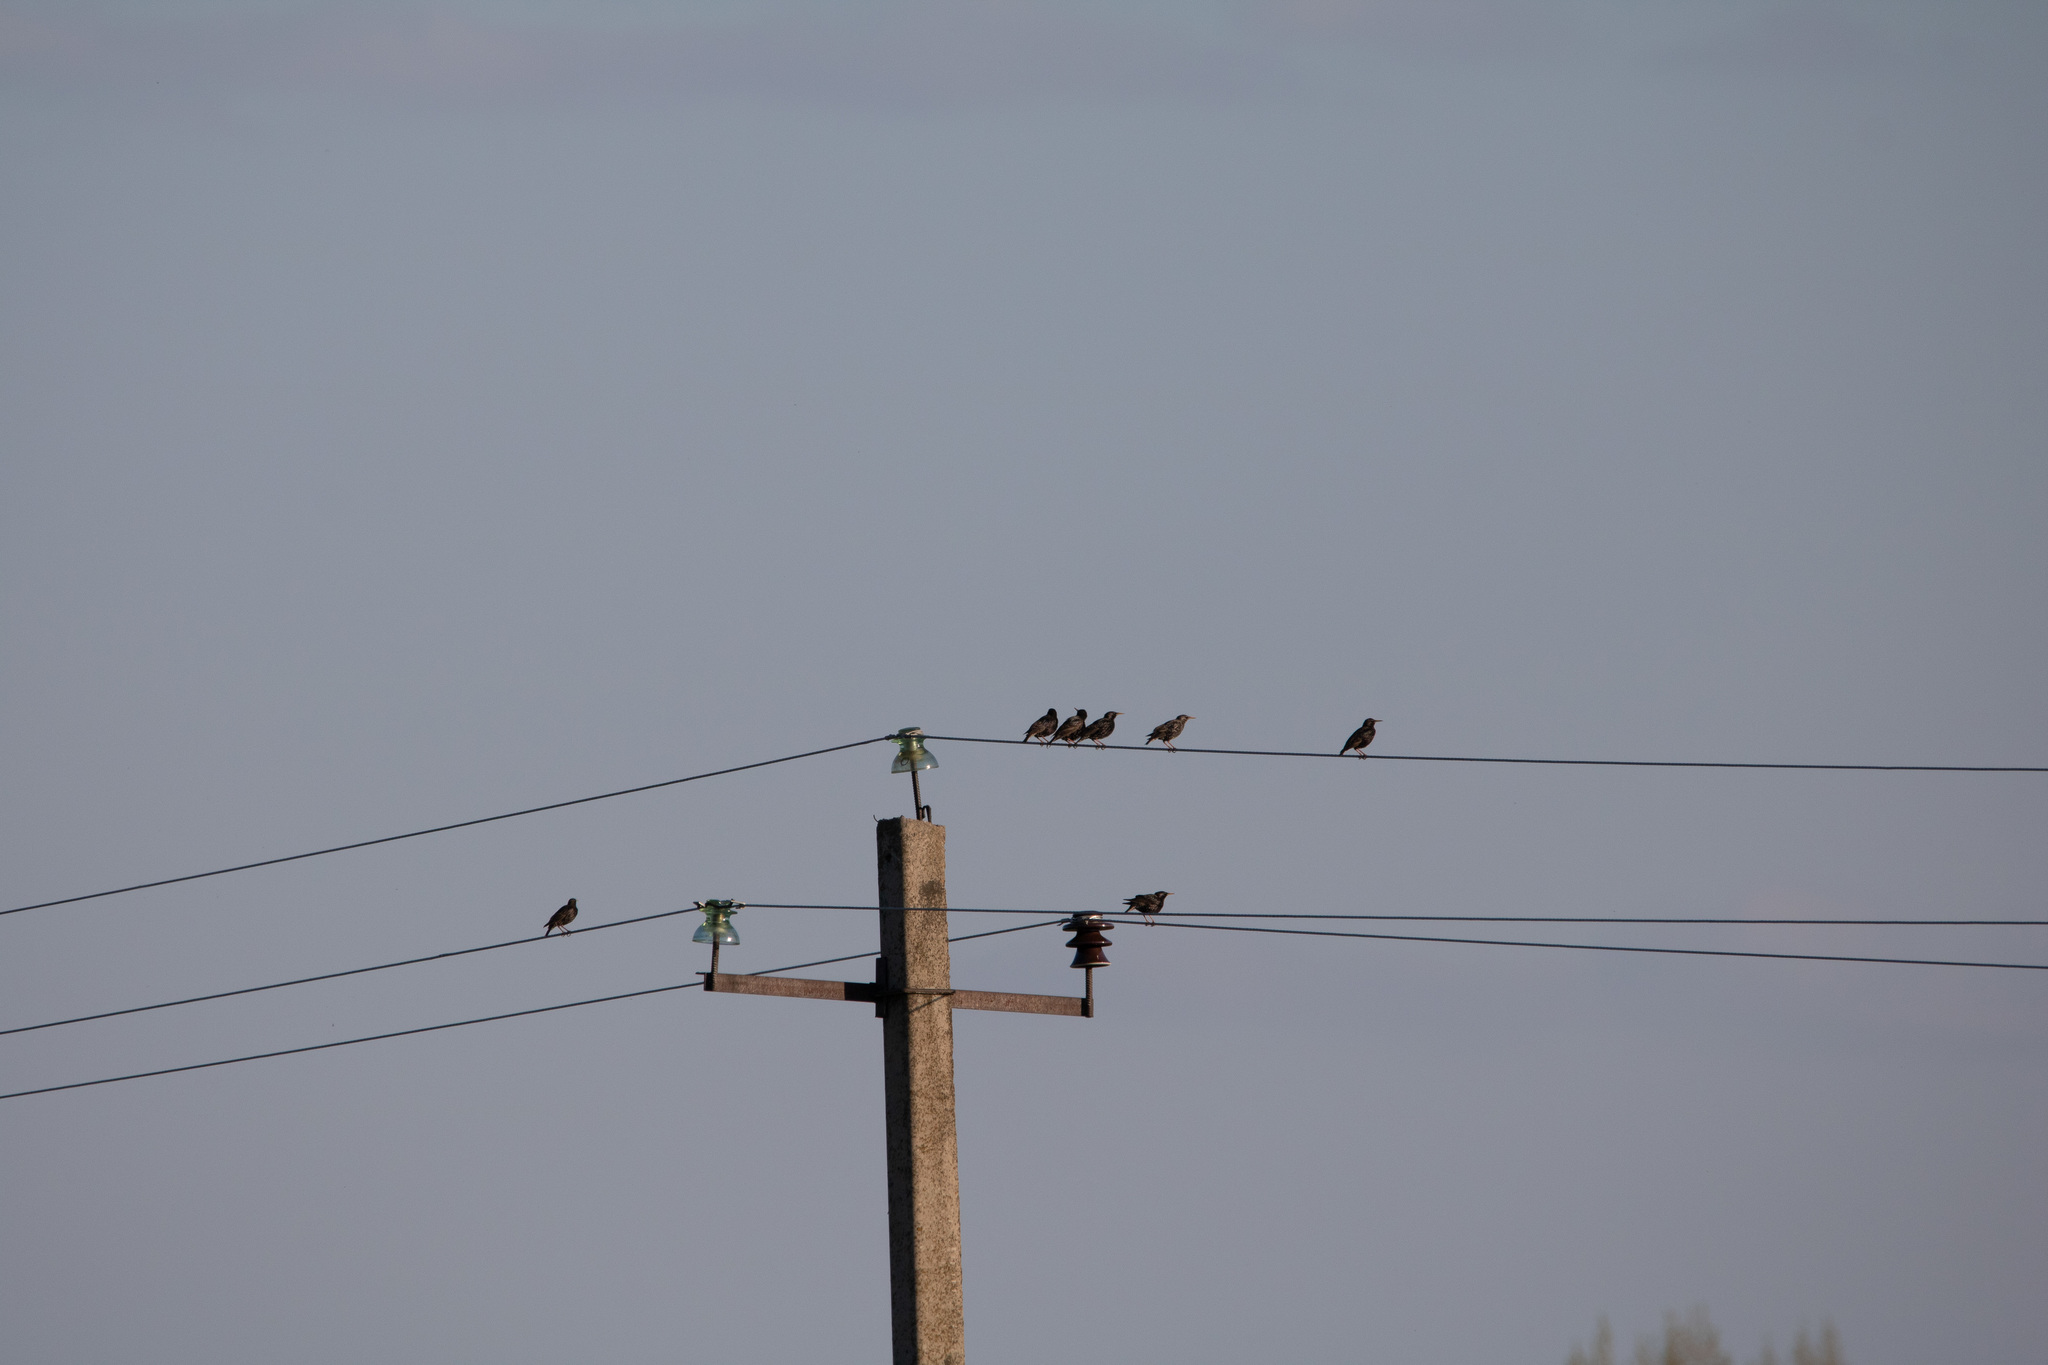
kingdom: Animalia
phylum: Chordata
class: Aves
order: Passeriformes
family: Sturnidae
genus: Sturnus
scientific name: Sturnus vulgaris
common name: Common starling
